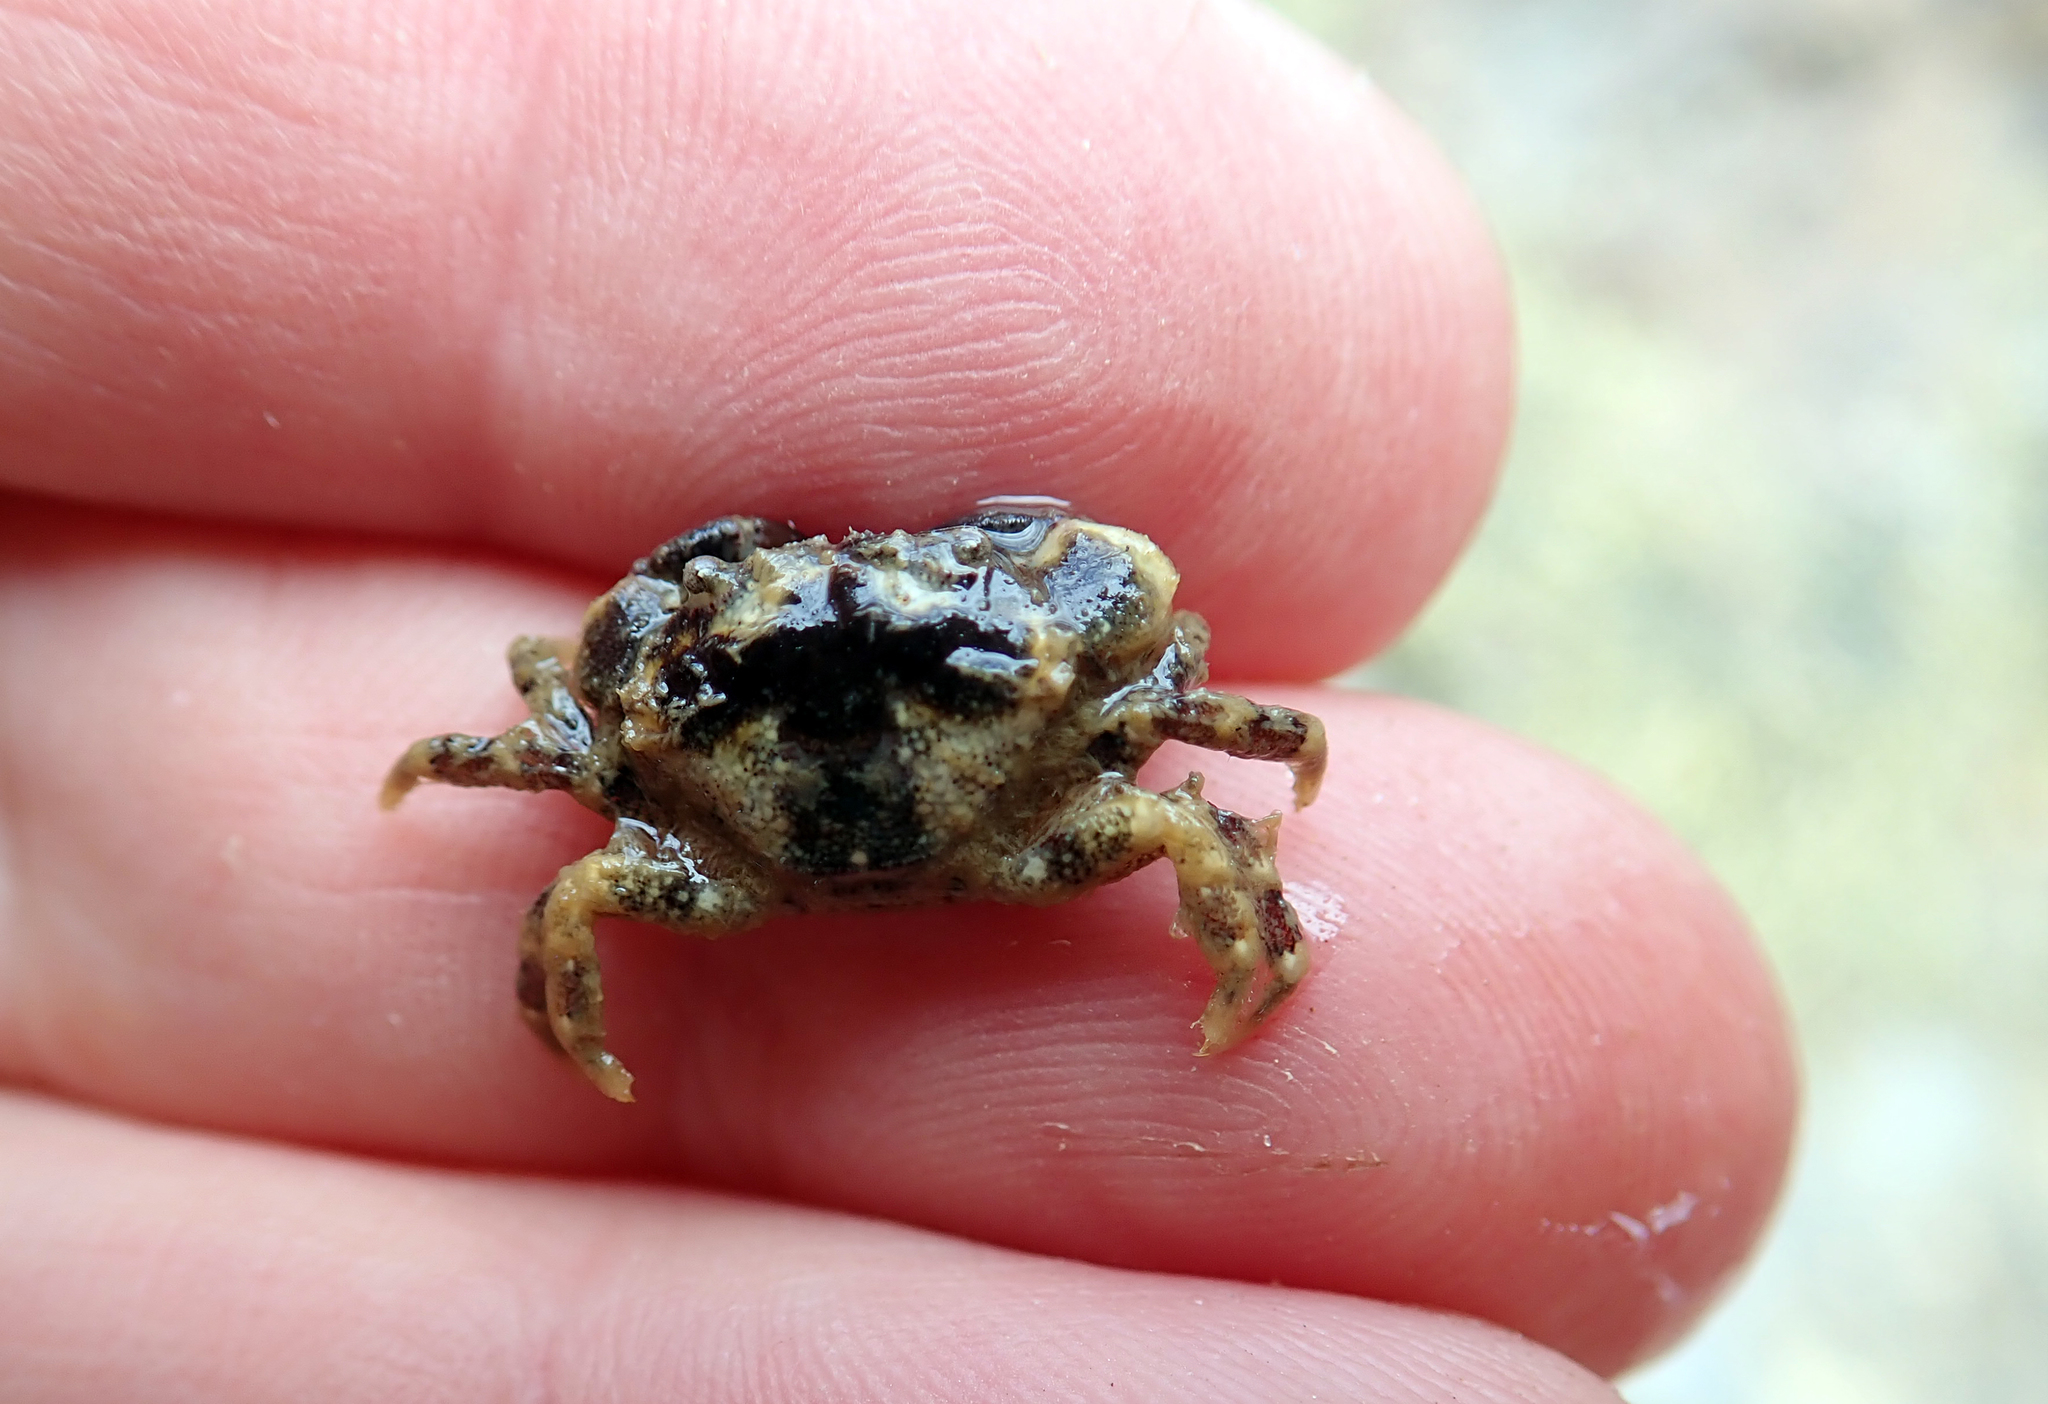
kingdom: Animalia
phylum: Arthropoda
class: Malacostraca
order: Decapoda
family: Pilumnidae
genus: Pilumnopeus
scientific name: Pilumnopeus serratifrons
